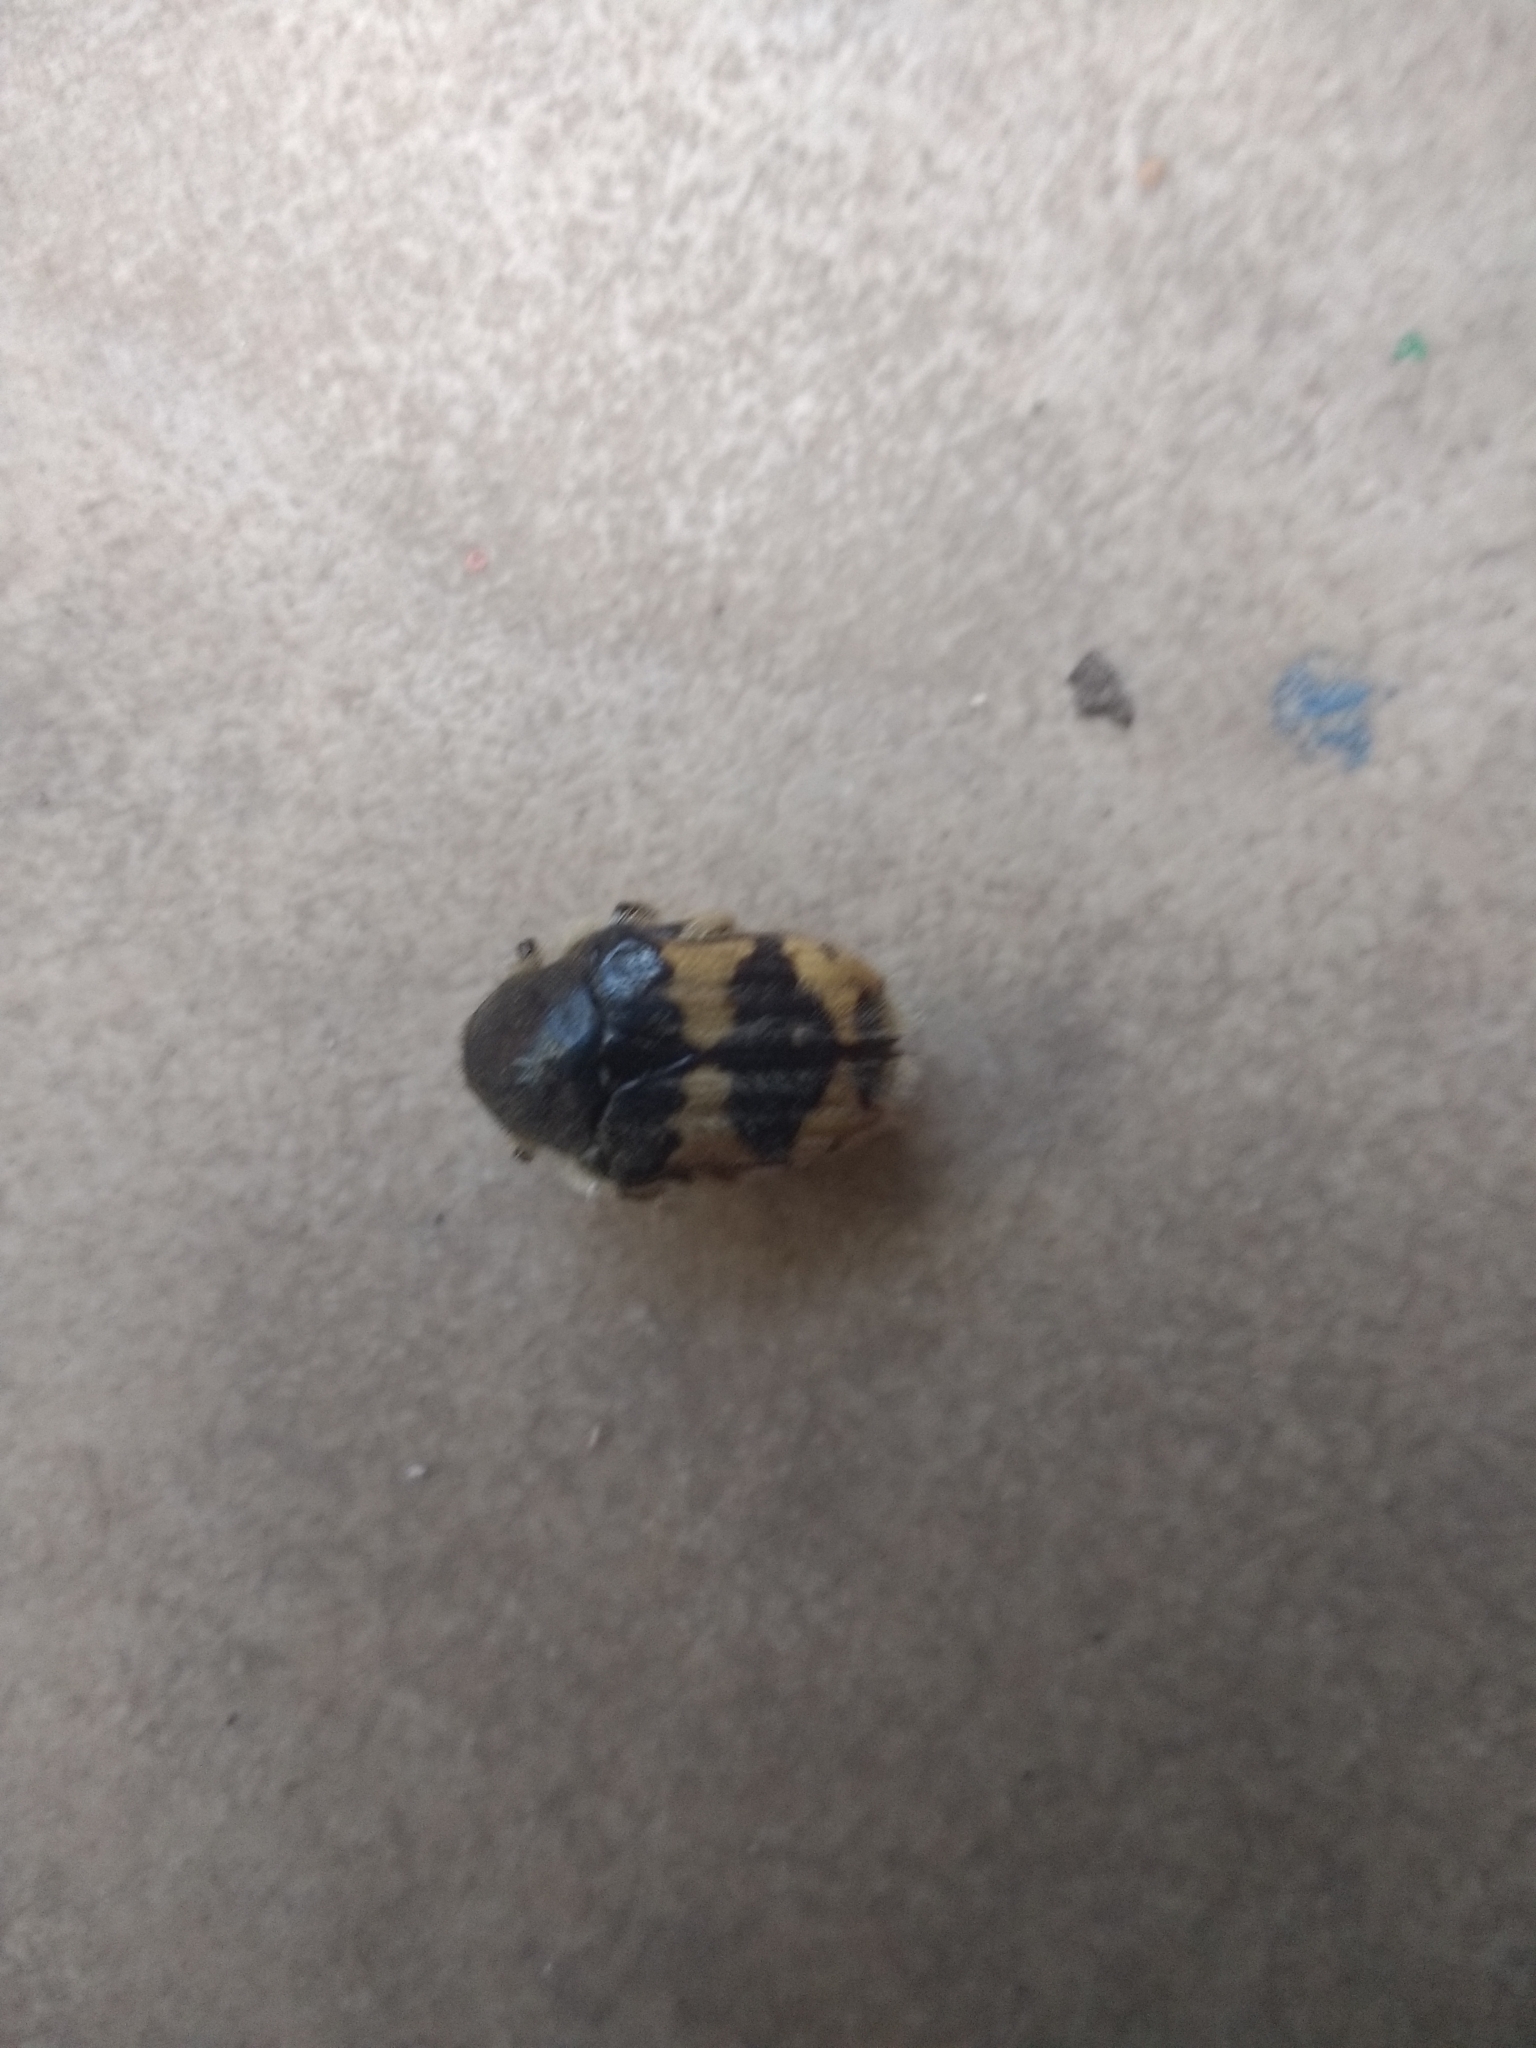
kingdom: Animalia
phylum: Arthropoda
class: Insecta
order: Coleoptera
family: Scarabaeidae
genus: Euphoria
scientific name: Euphoria basalis
